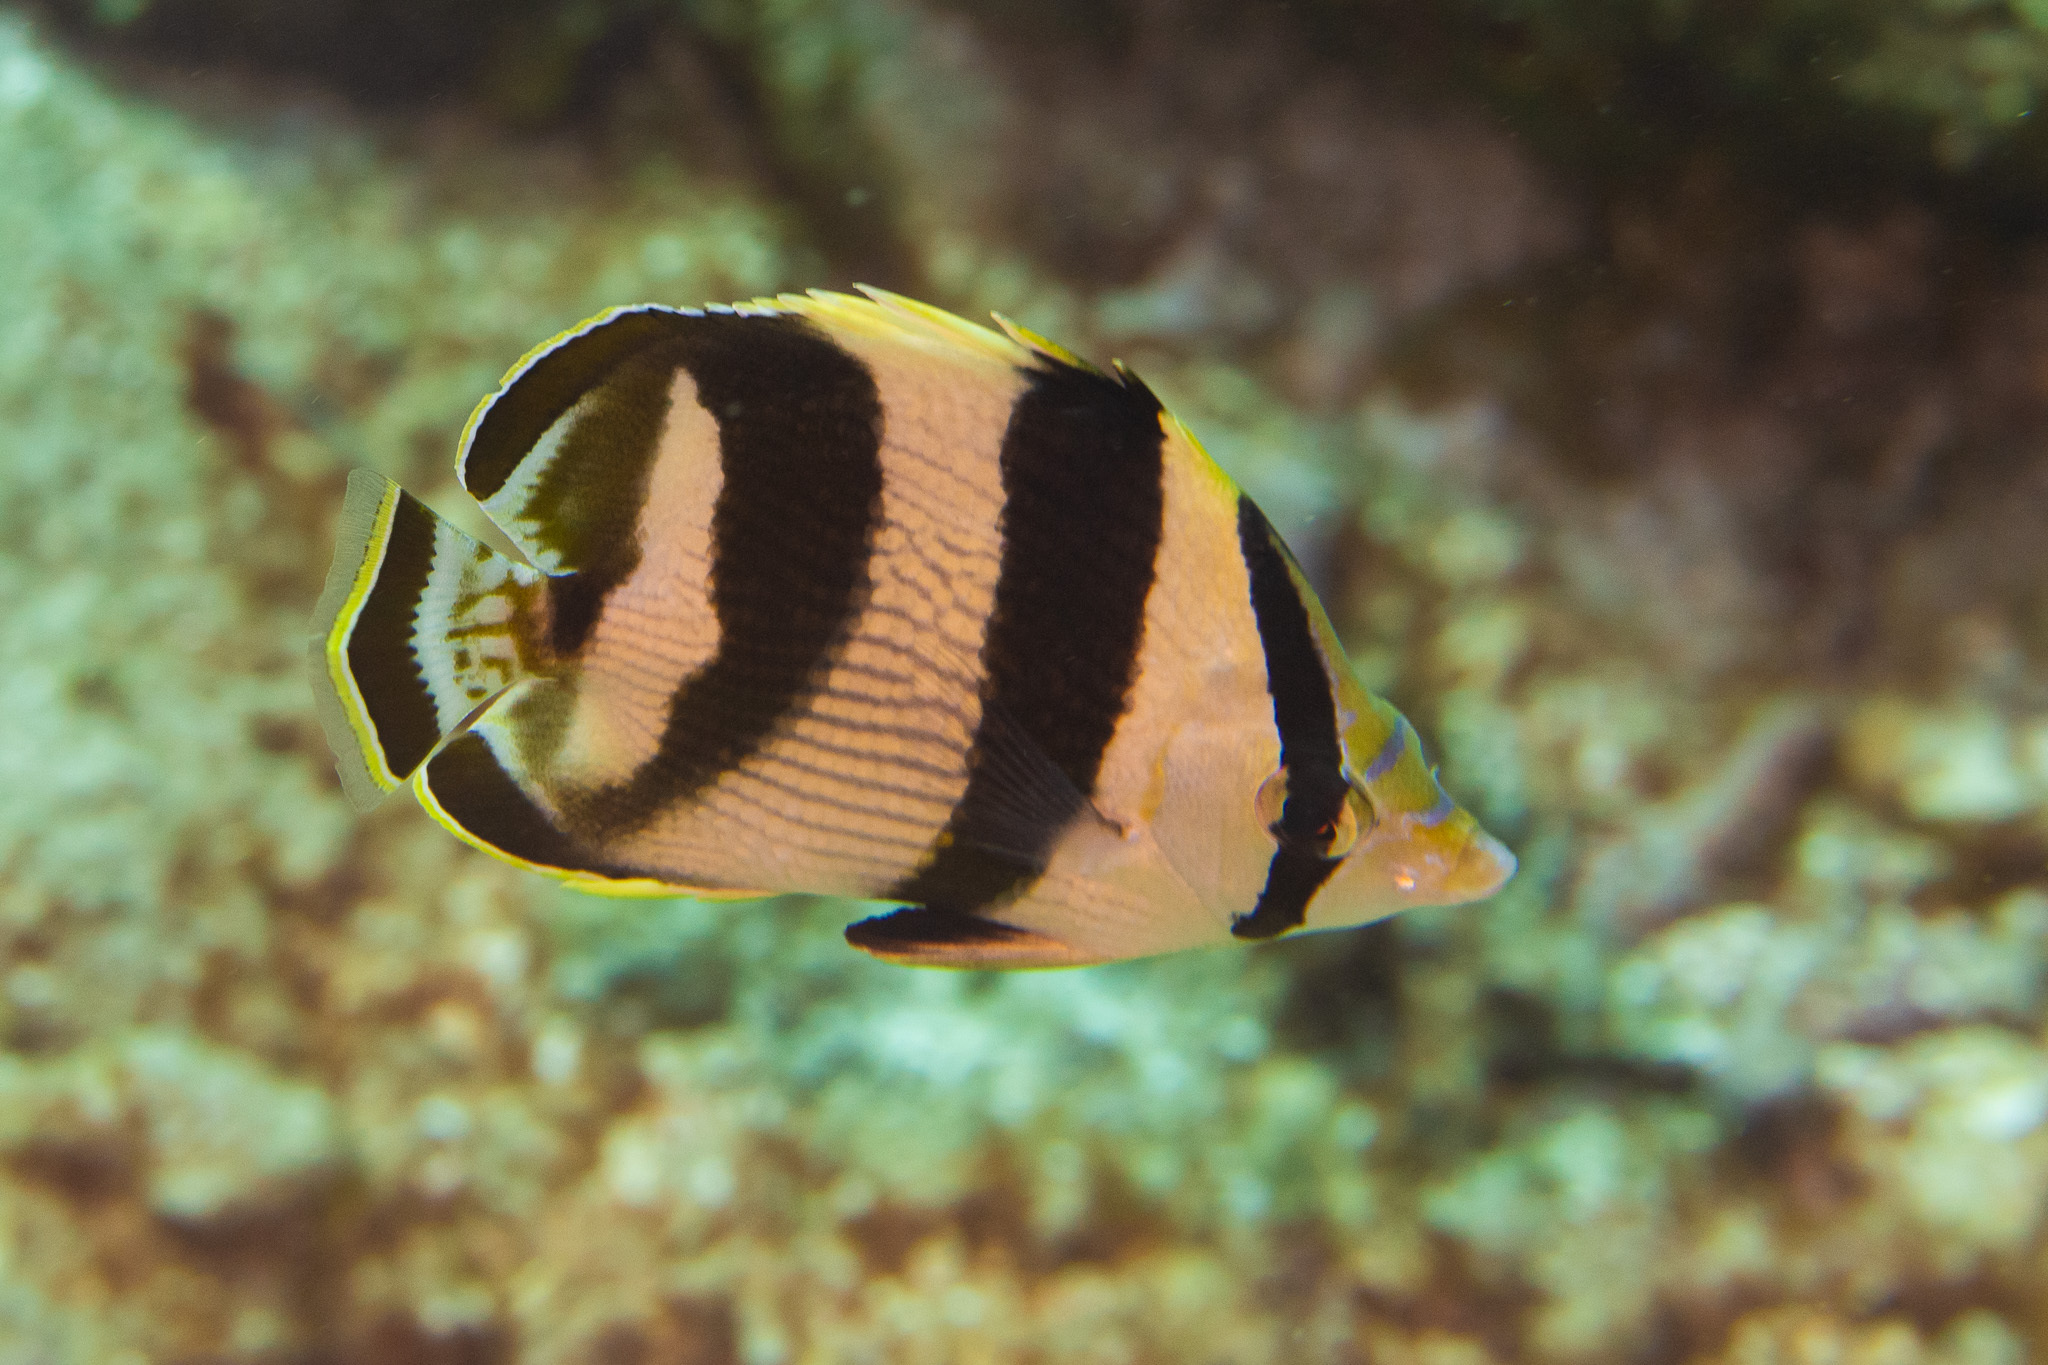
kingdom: Animalia
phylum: Chordata
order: Perciformes
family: Chaetodontidae
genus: Chaetodon
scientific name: Chaetodon striatus
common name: Banded butterflyfish
